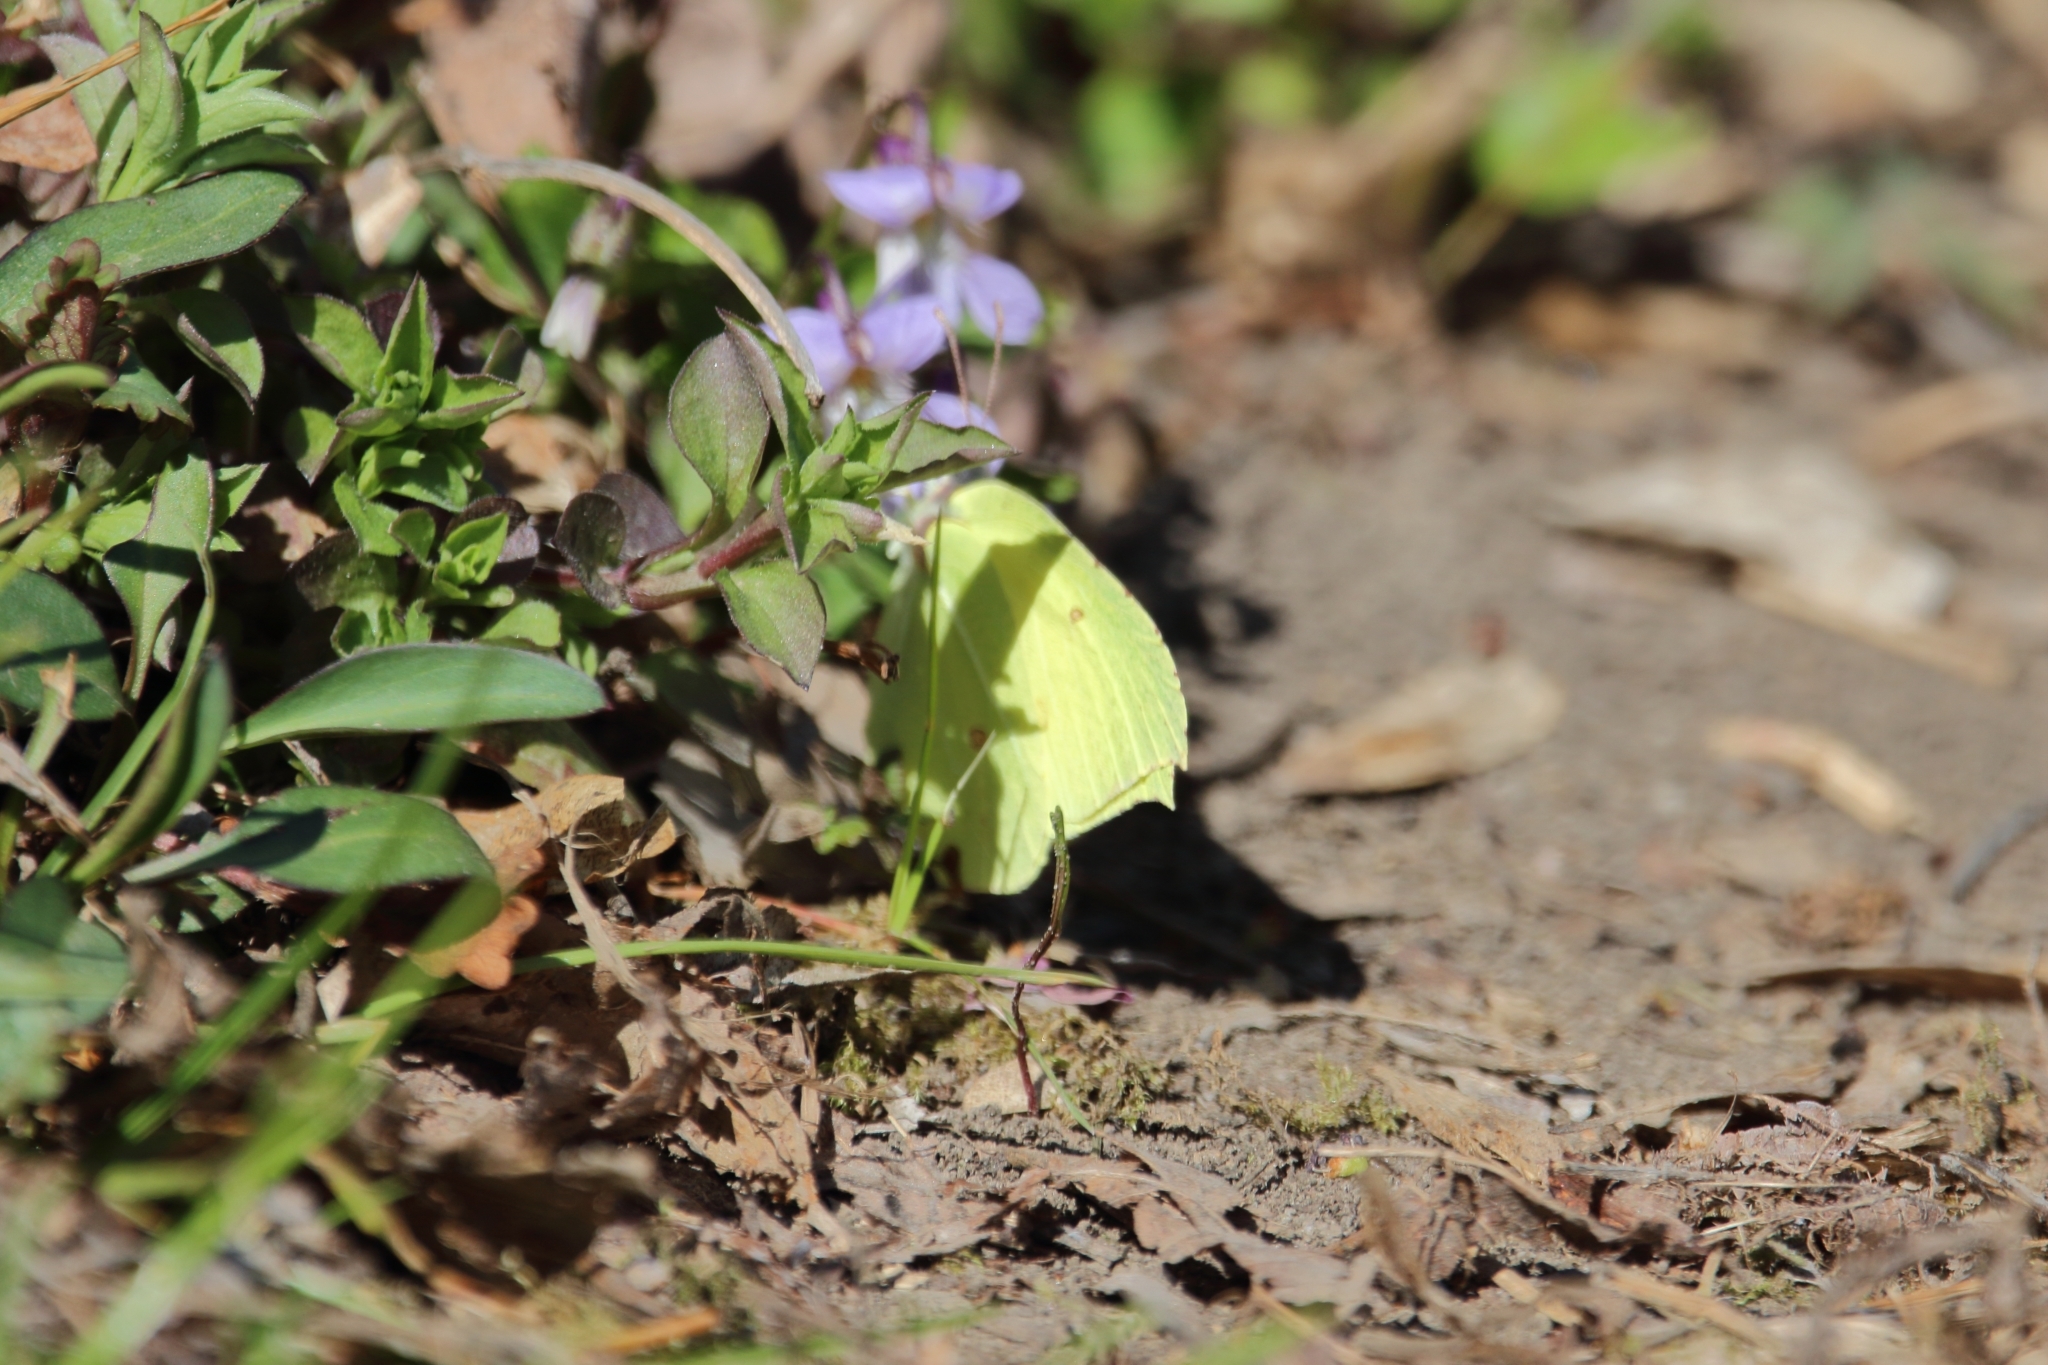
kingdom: Animalia
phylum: Arthropoda
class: Insecta
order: Lepidoptera
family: Pieridae
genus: Gonepteryx
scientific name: Gonepteryx rhamni
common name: Brimstone
